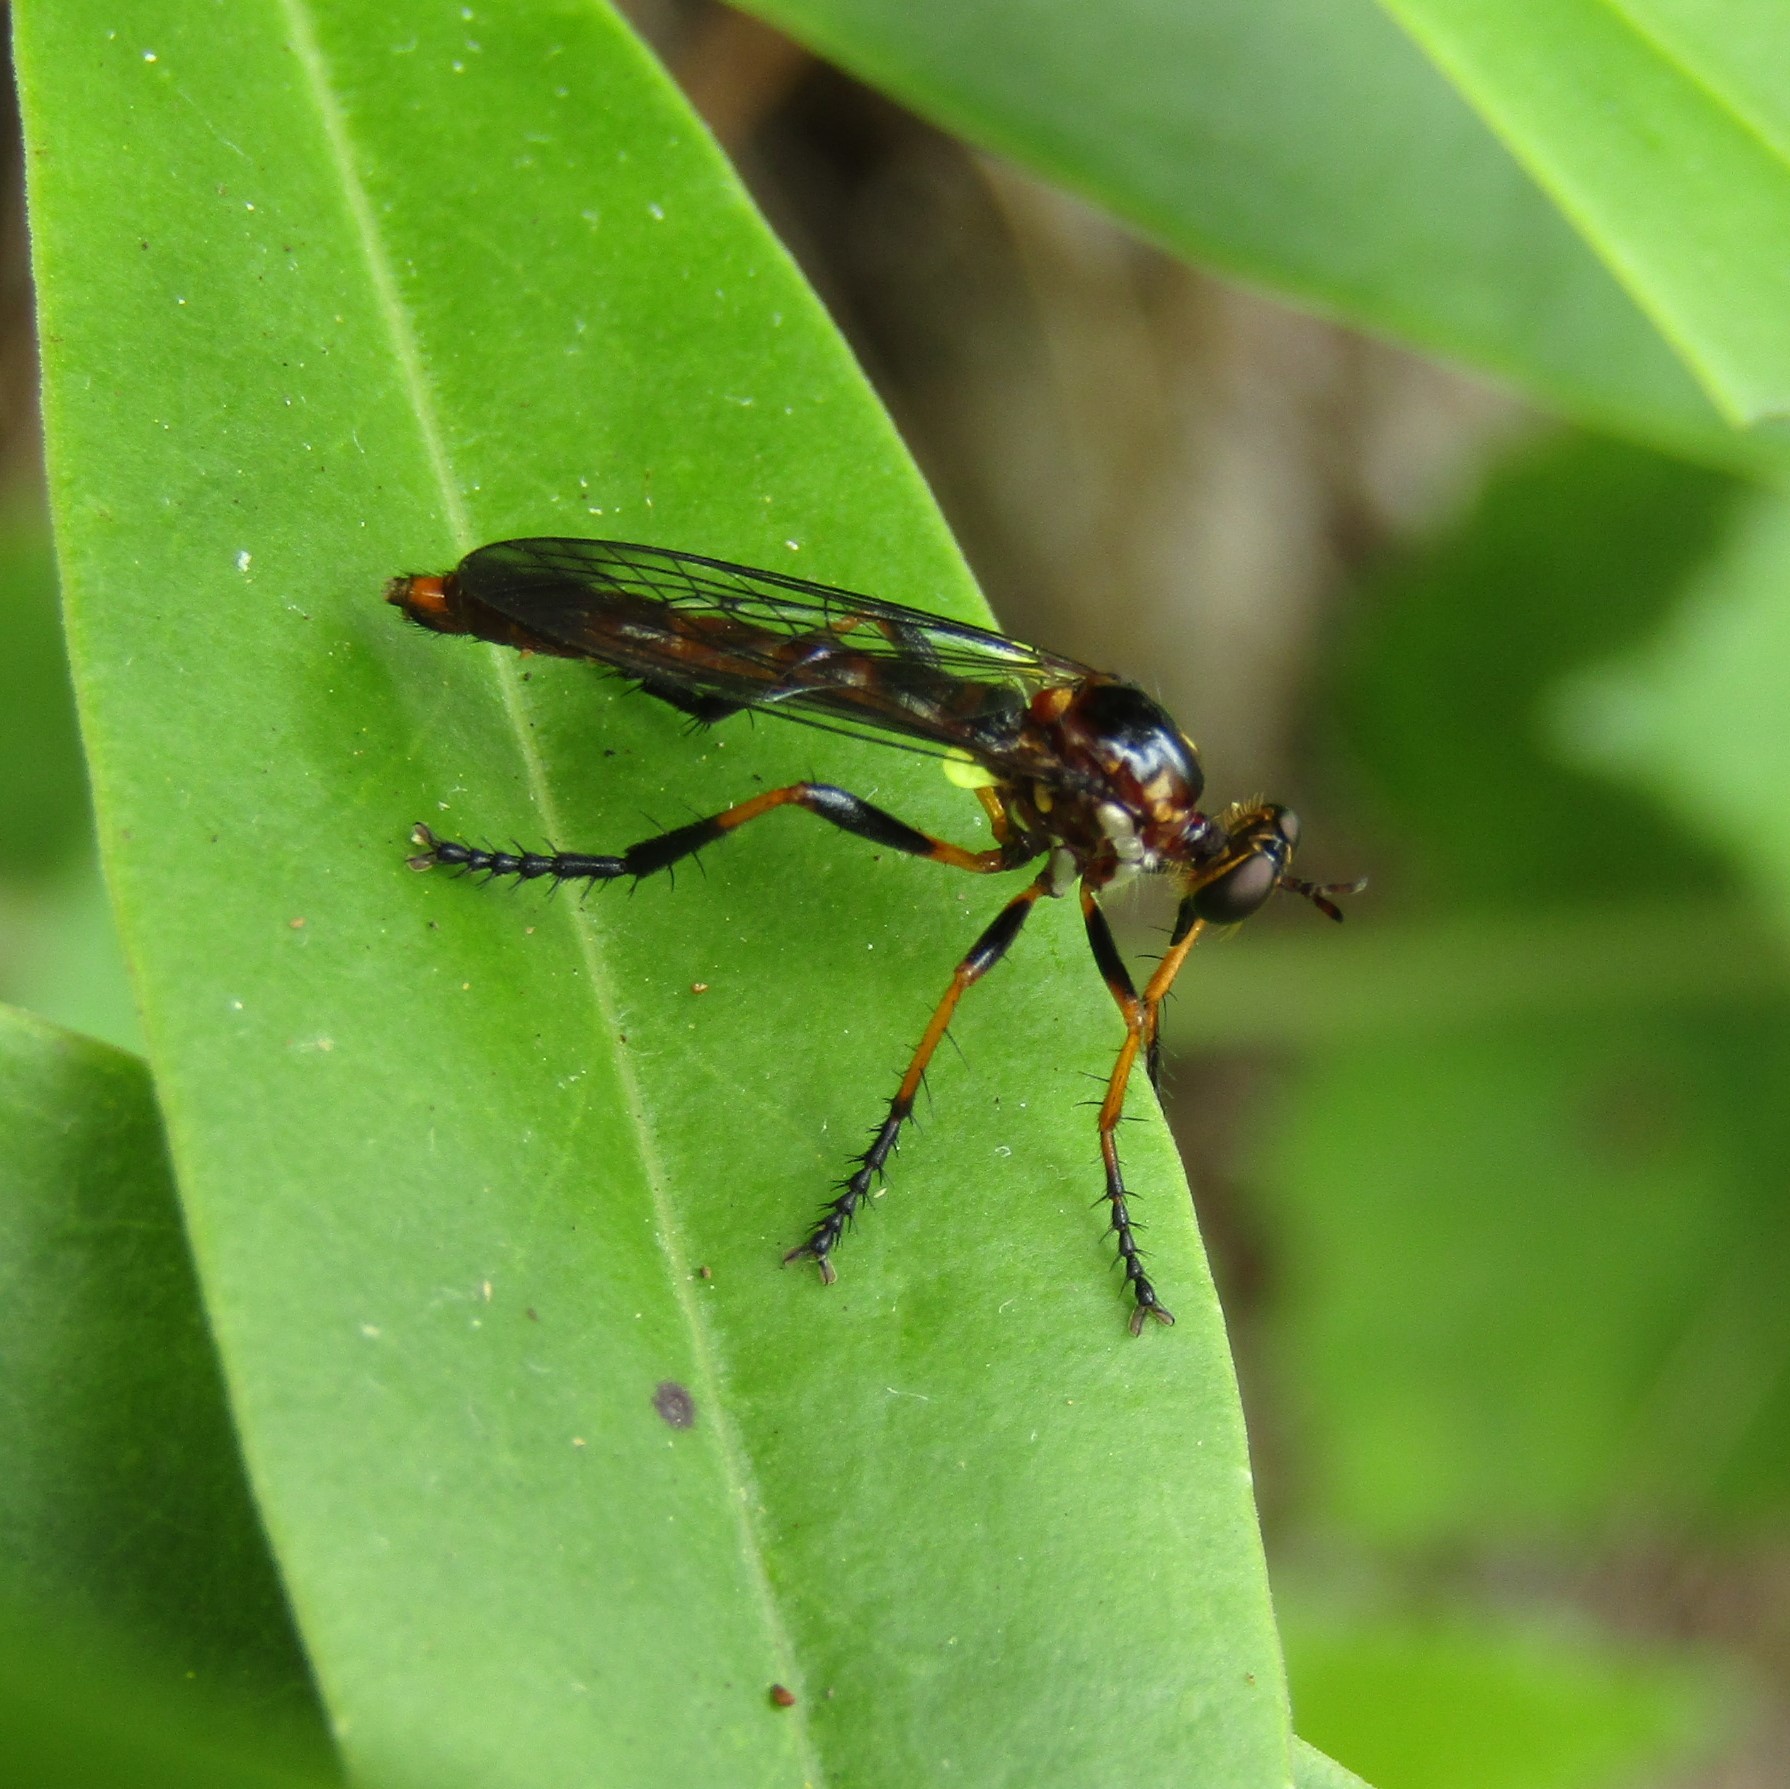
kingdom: Animalia
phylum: Arthropoda
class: Insecta
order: Diptera
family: Asilidae
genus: Saropogon
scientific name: Saropogon fascipes
